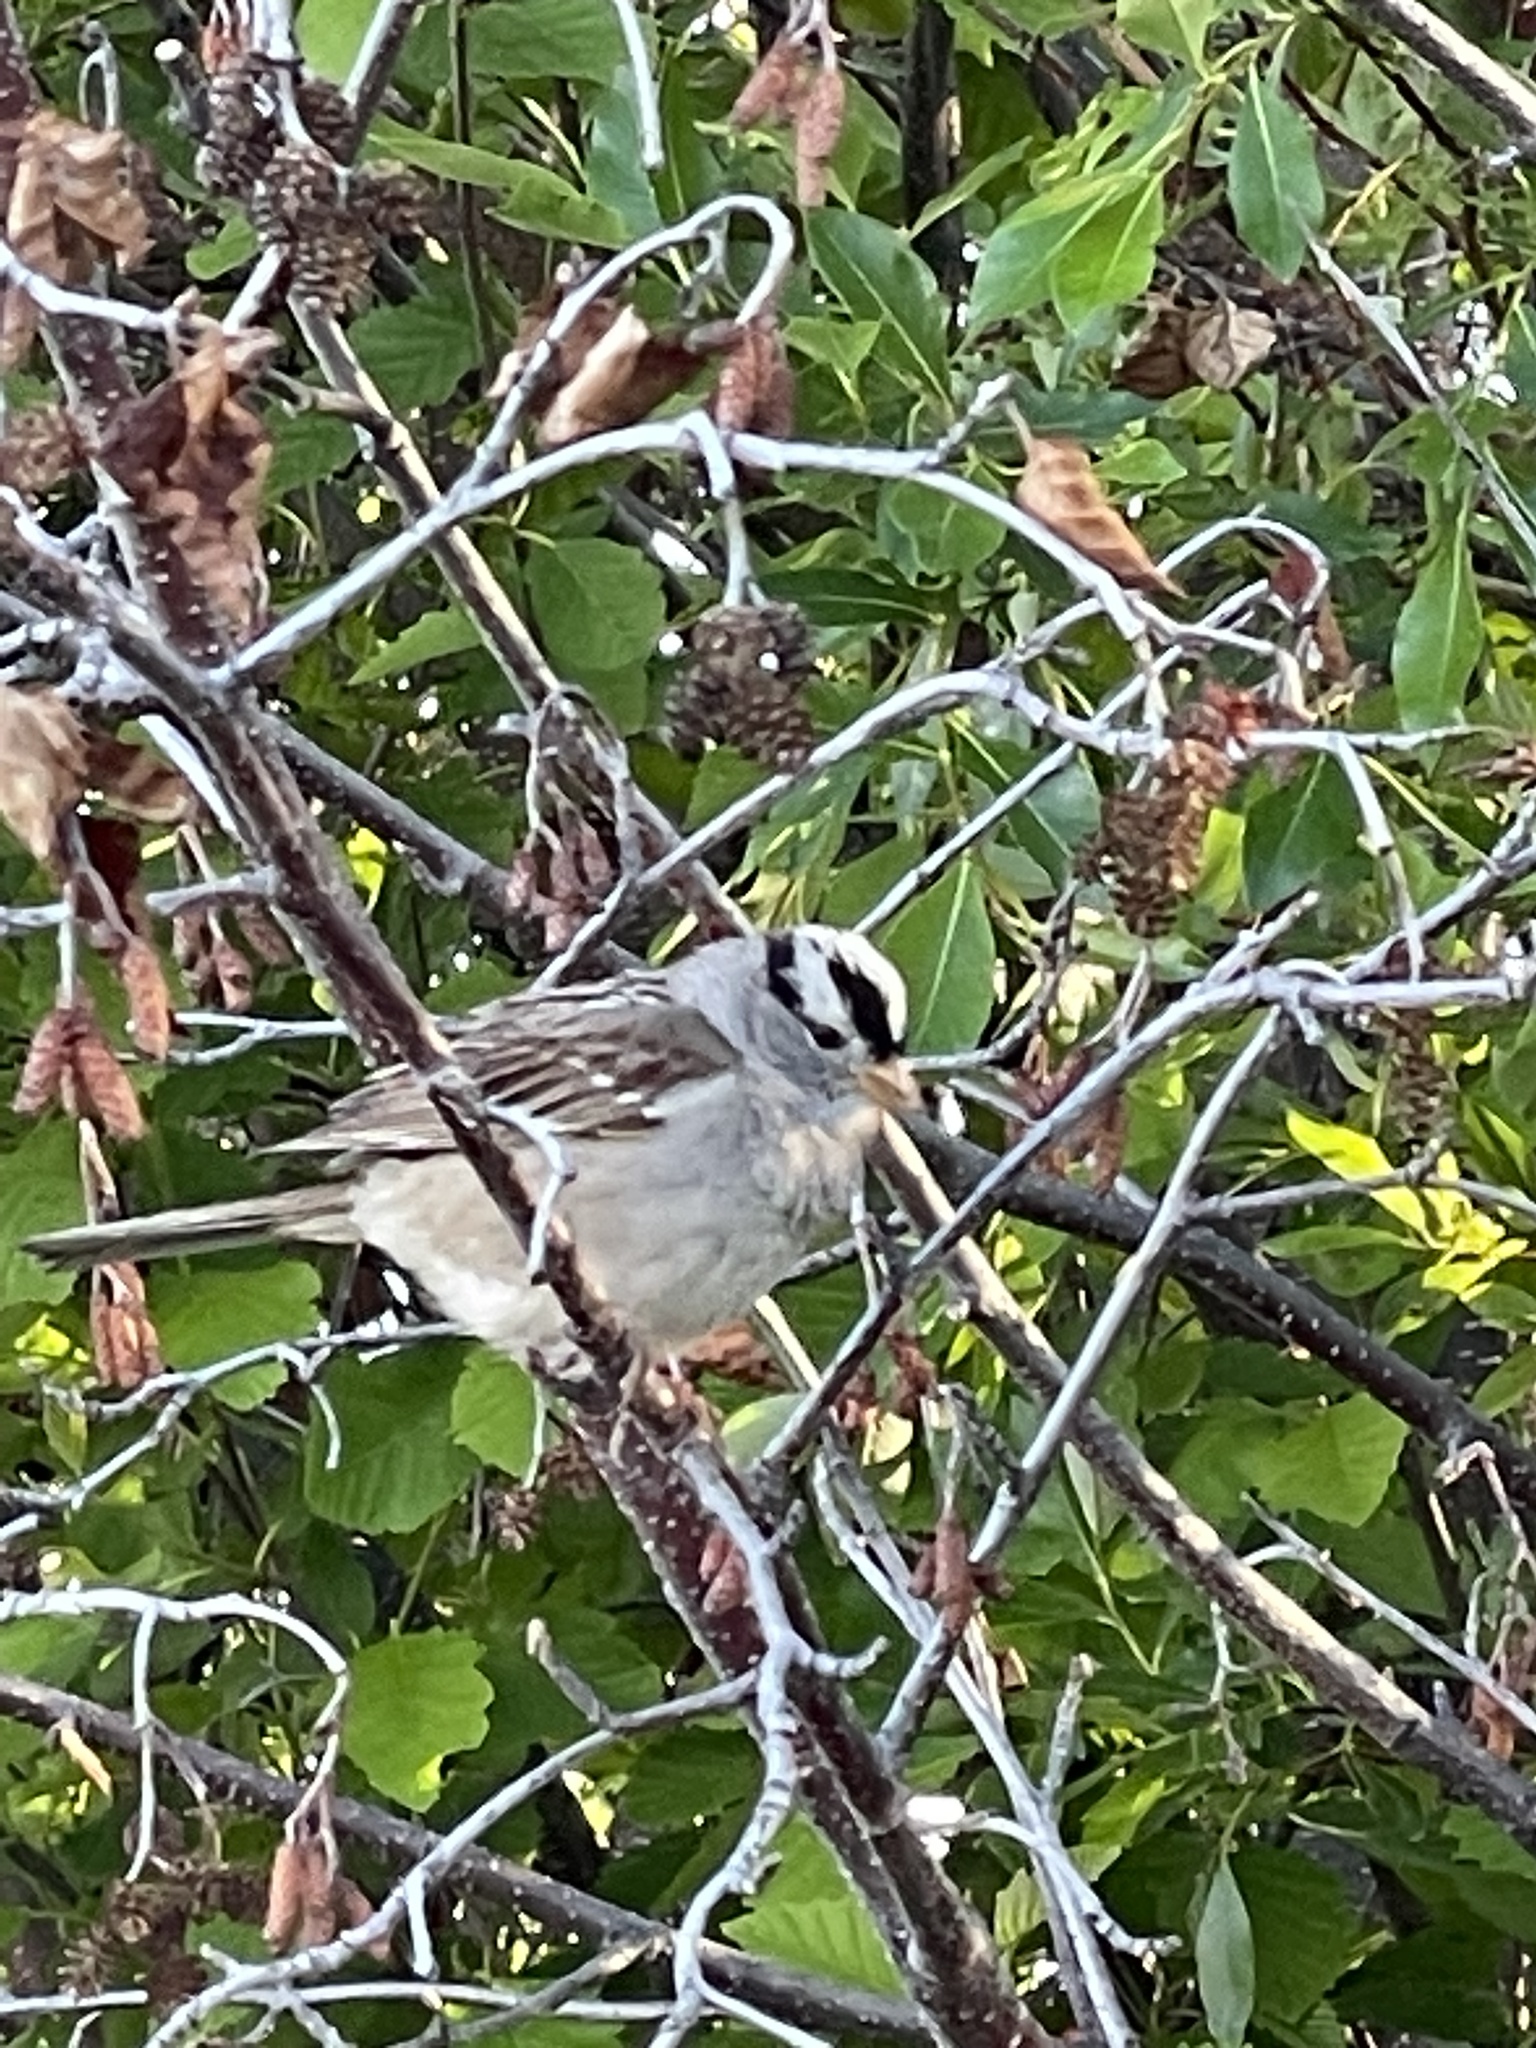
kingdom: Animalia
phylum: Chordata
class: Aves
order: Passeriformes
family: Passerellidae
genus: Zonotrichia
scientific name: Zonotrichia leucophrys
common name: White-crowned sparrow
